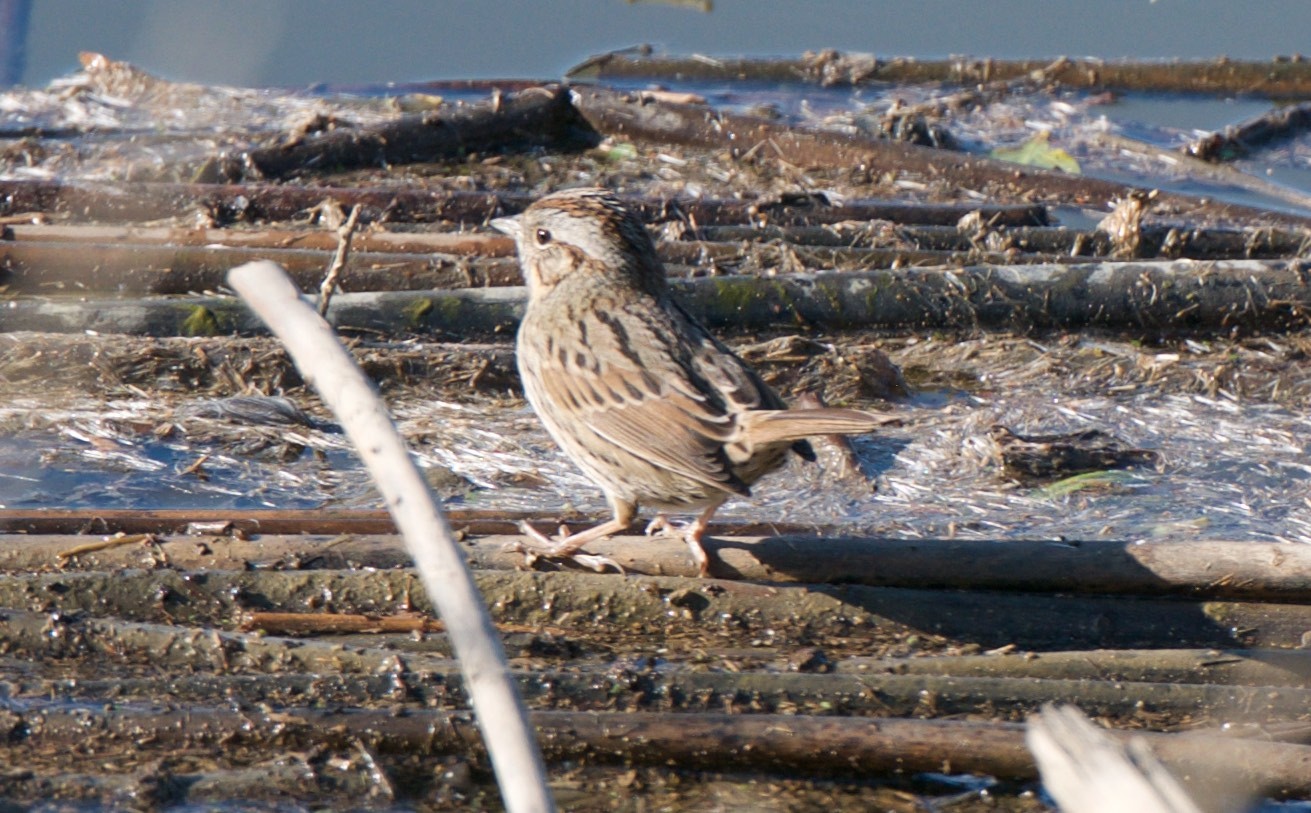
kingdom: Animalia
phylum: Chordata
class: Aves
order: Passeriformes
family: Passerellidae
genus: Melospiza
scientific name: Melospiza lincolnii
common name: Lincoln's sparrow
